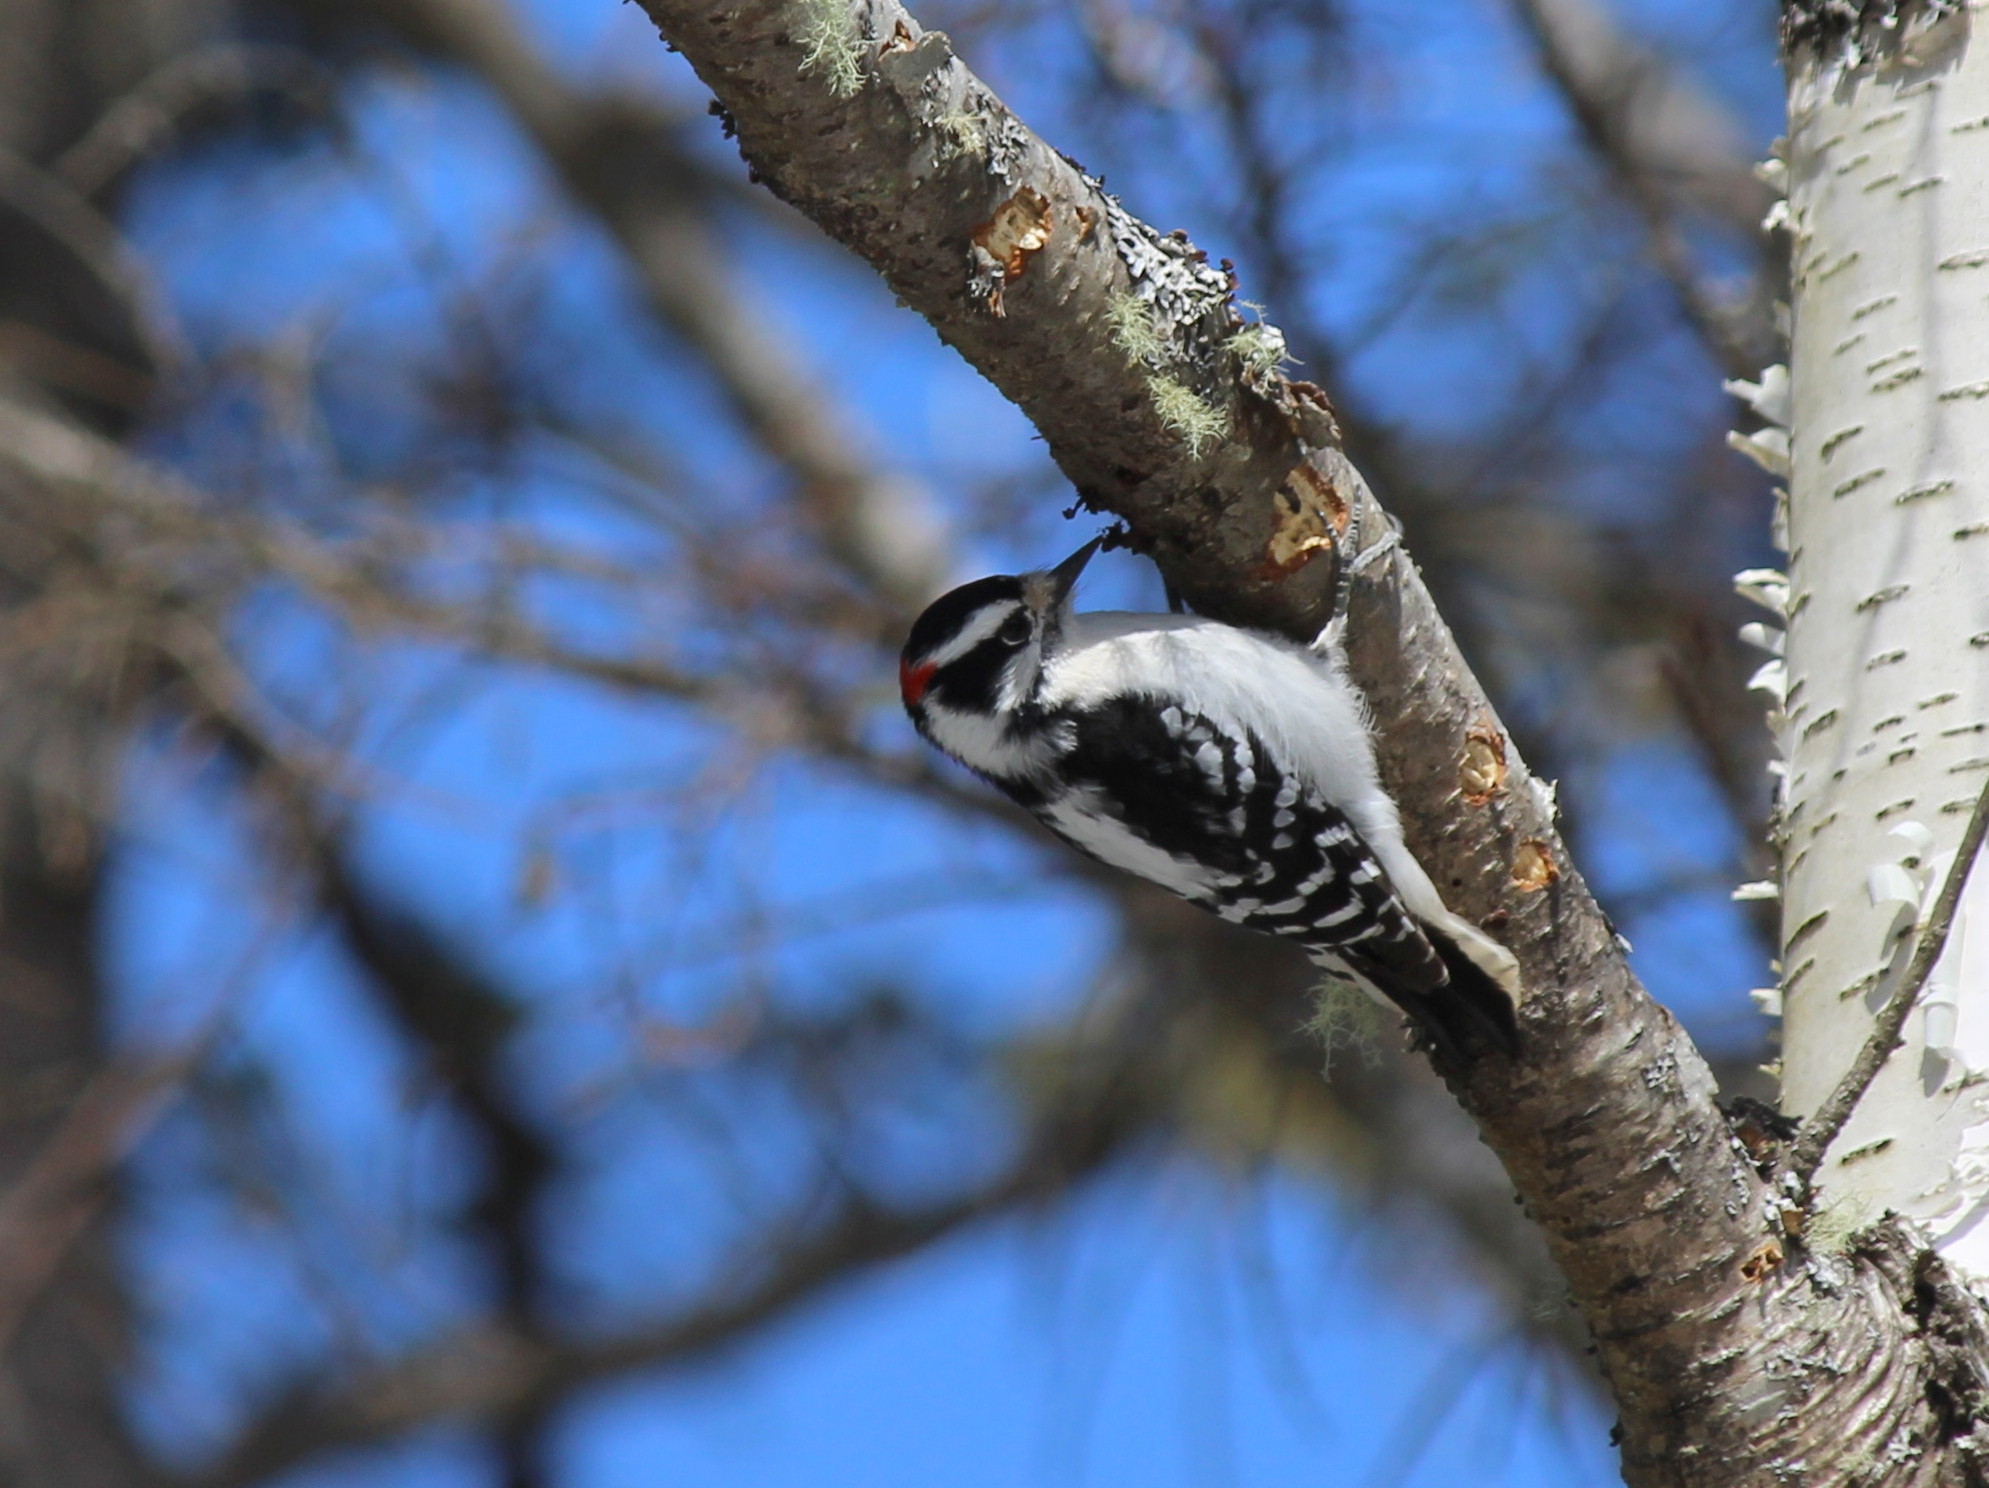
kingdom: Animalia
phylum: Chordata
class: Aves
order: Piciformes
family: Picidae
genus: Dryobates
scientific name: Dryobates pubescens
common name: Downy woodpecker
